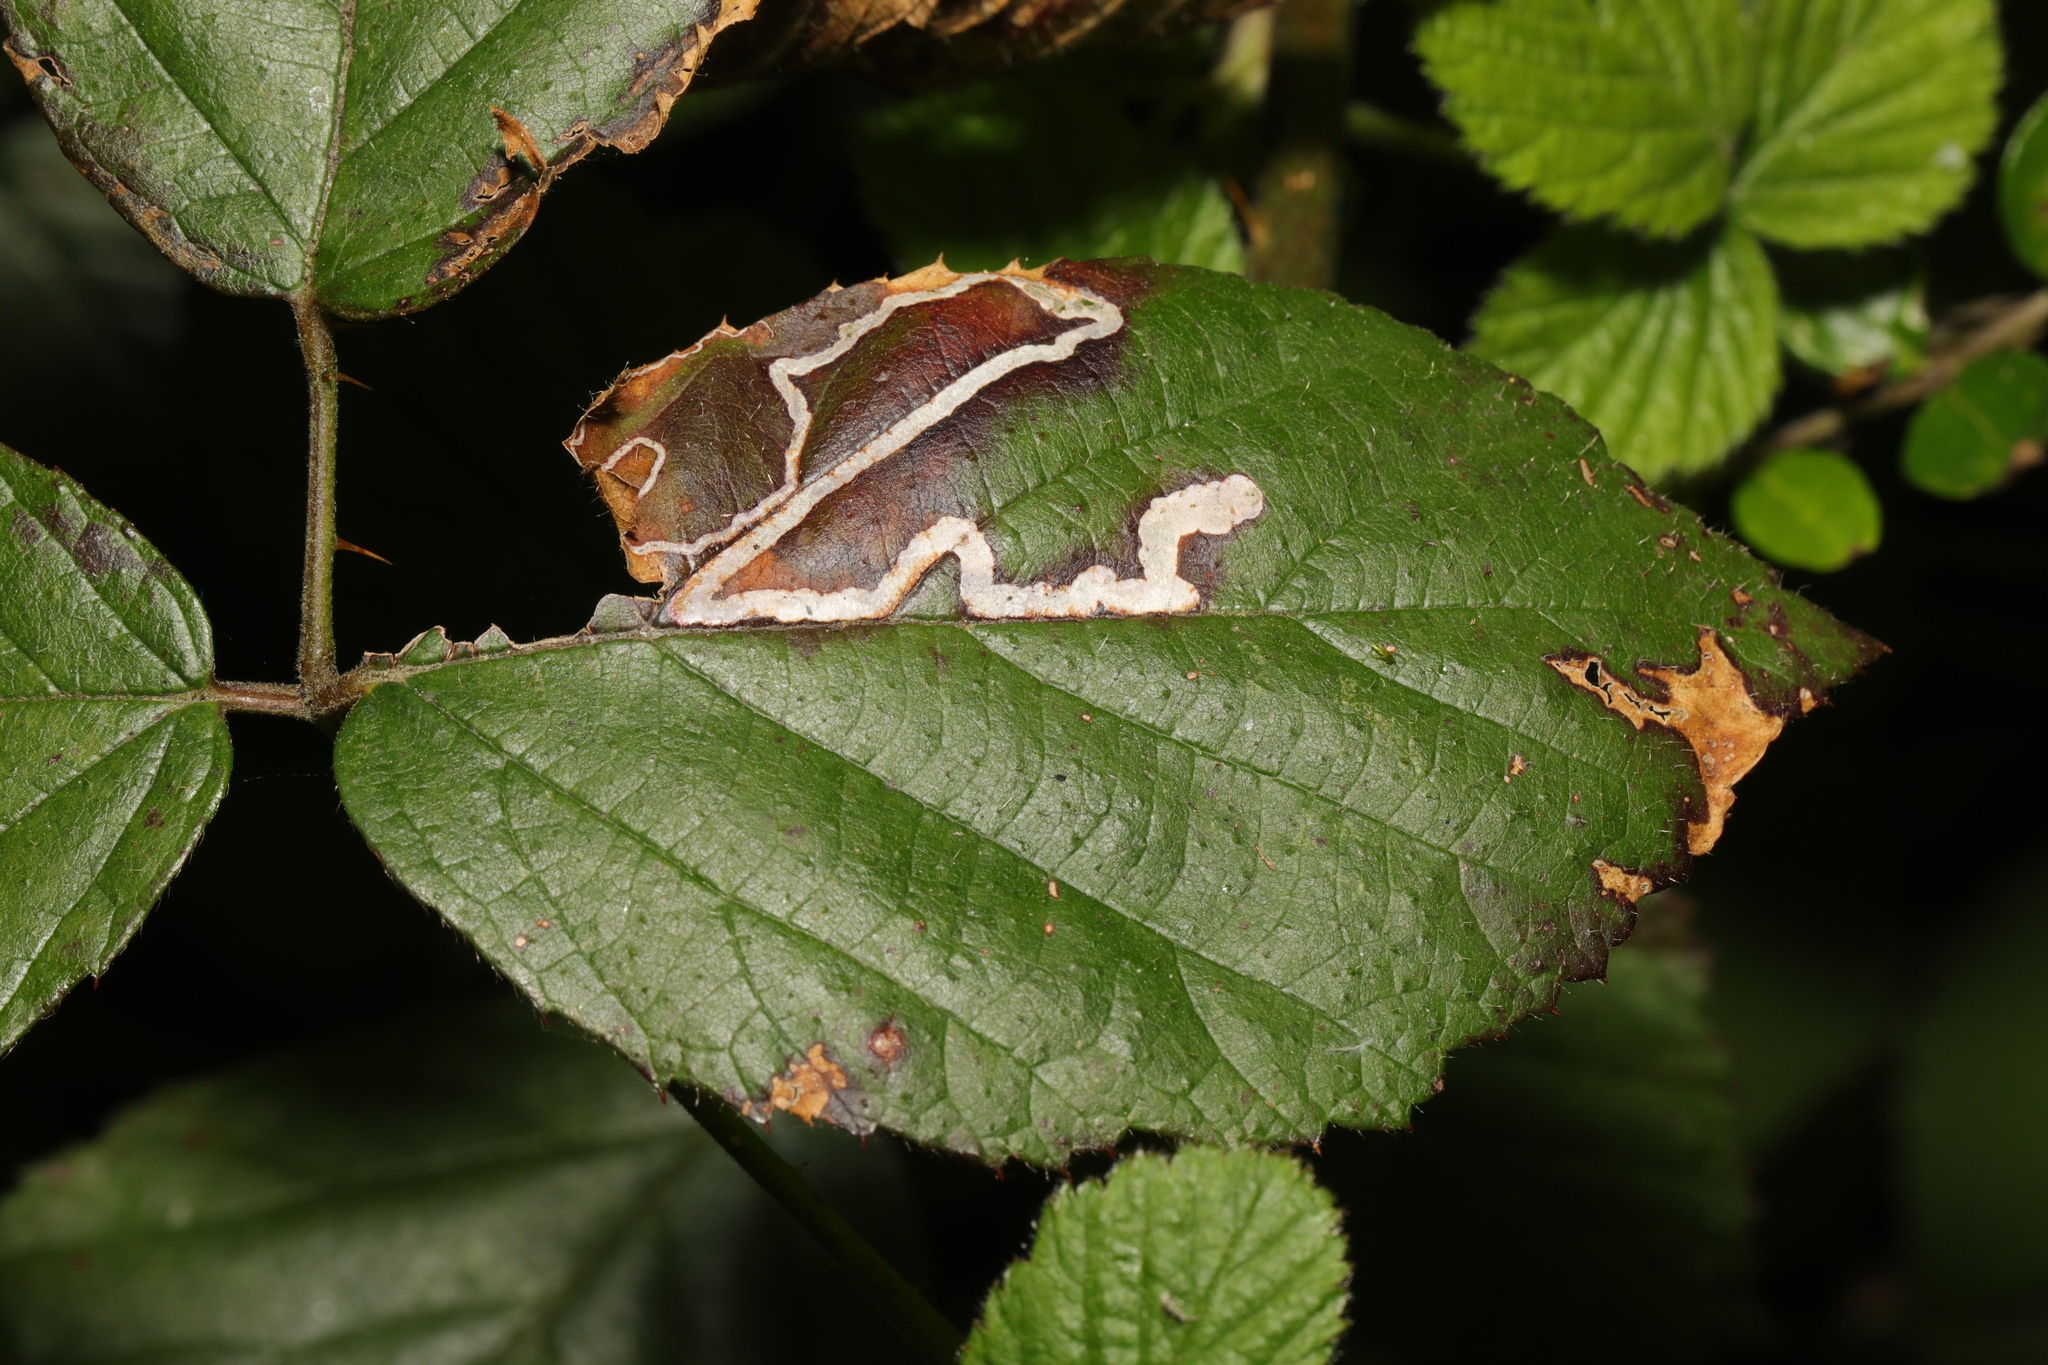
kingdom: Animalia
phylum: Arthropoda
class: Insecta
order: Lepidoptera
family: Nepticulidae
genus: Stigmella
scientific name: Stigmella aurella
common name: Golden pigmy
